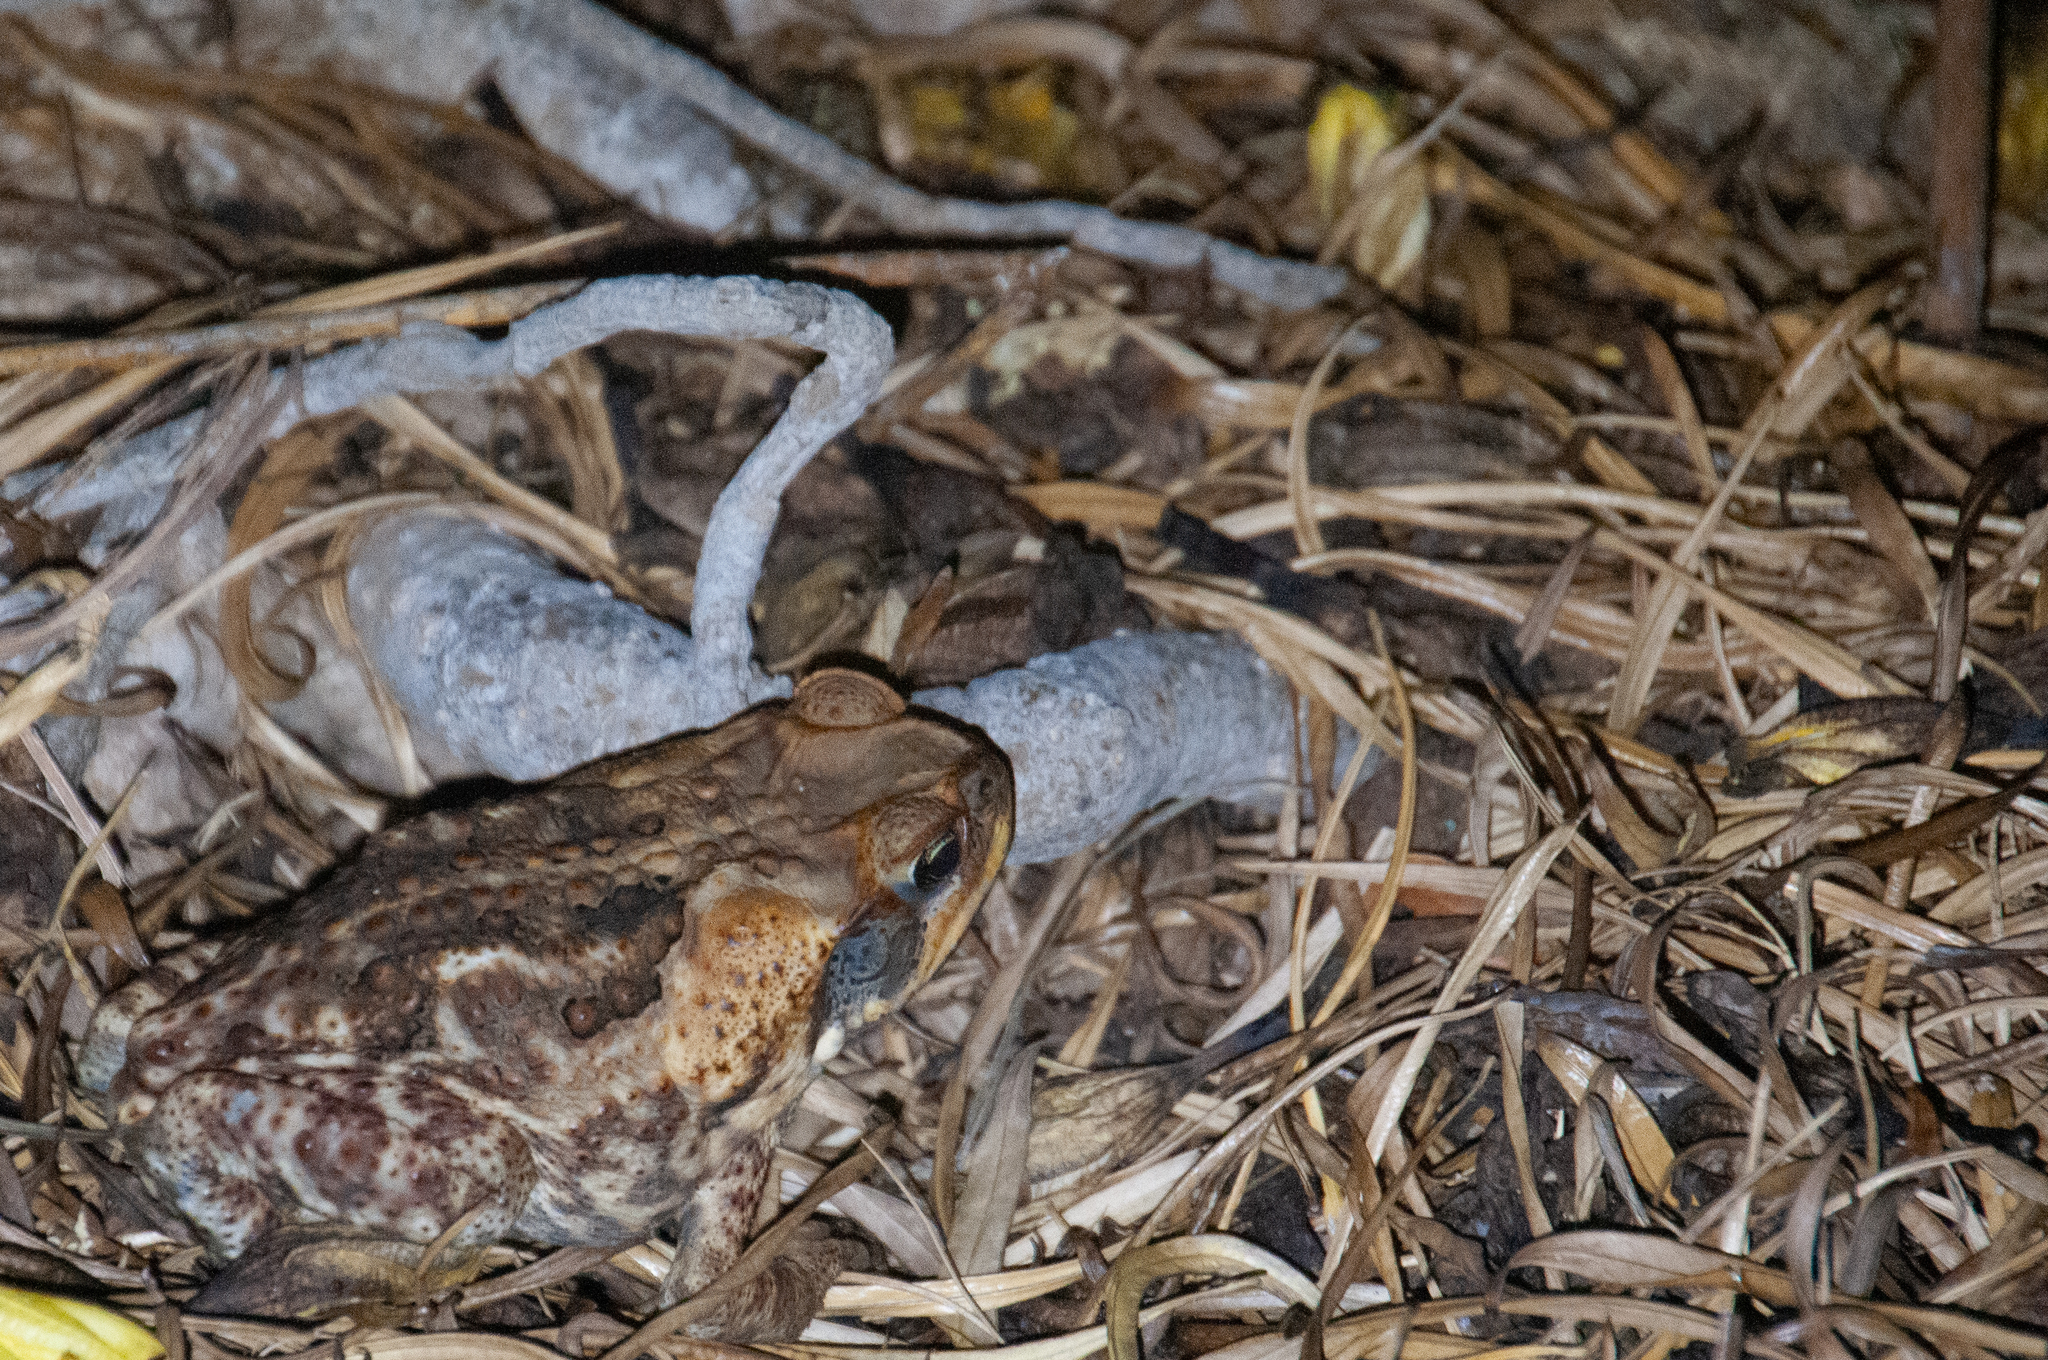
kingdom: Animalia
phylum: Chordata
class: Amphibia
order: Anura
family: Bufonidae
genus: Rhinella
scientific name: Rhinella marina
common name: Cane toad
